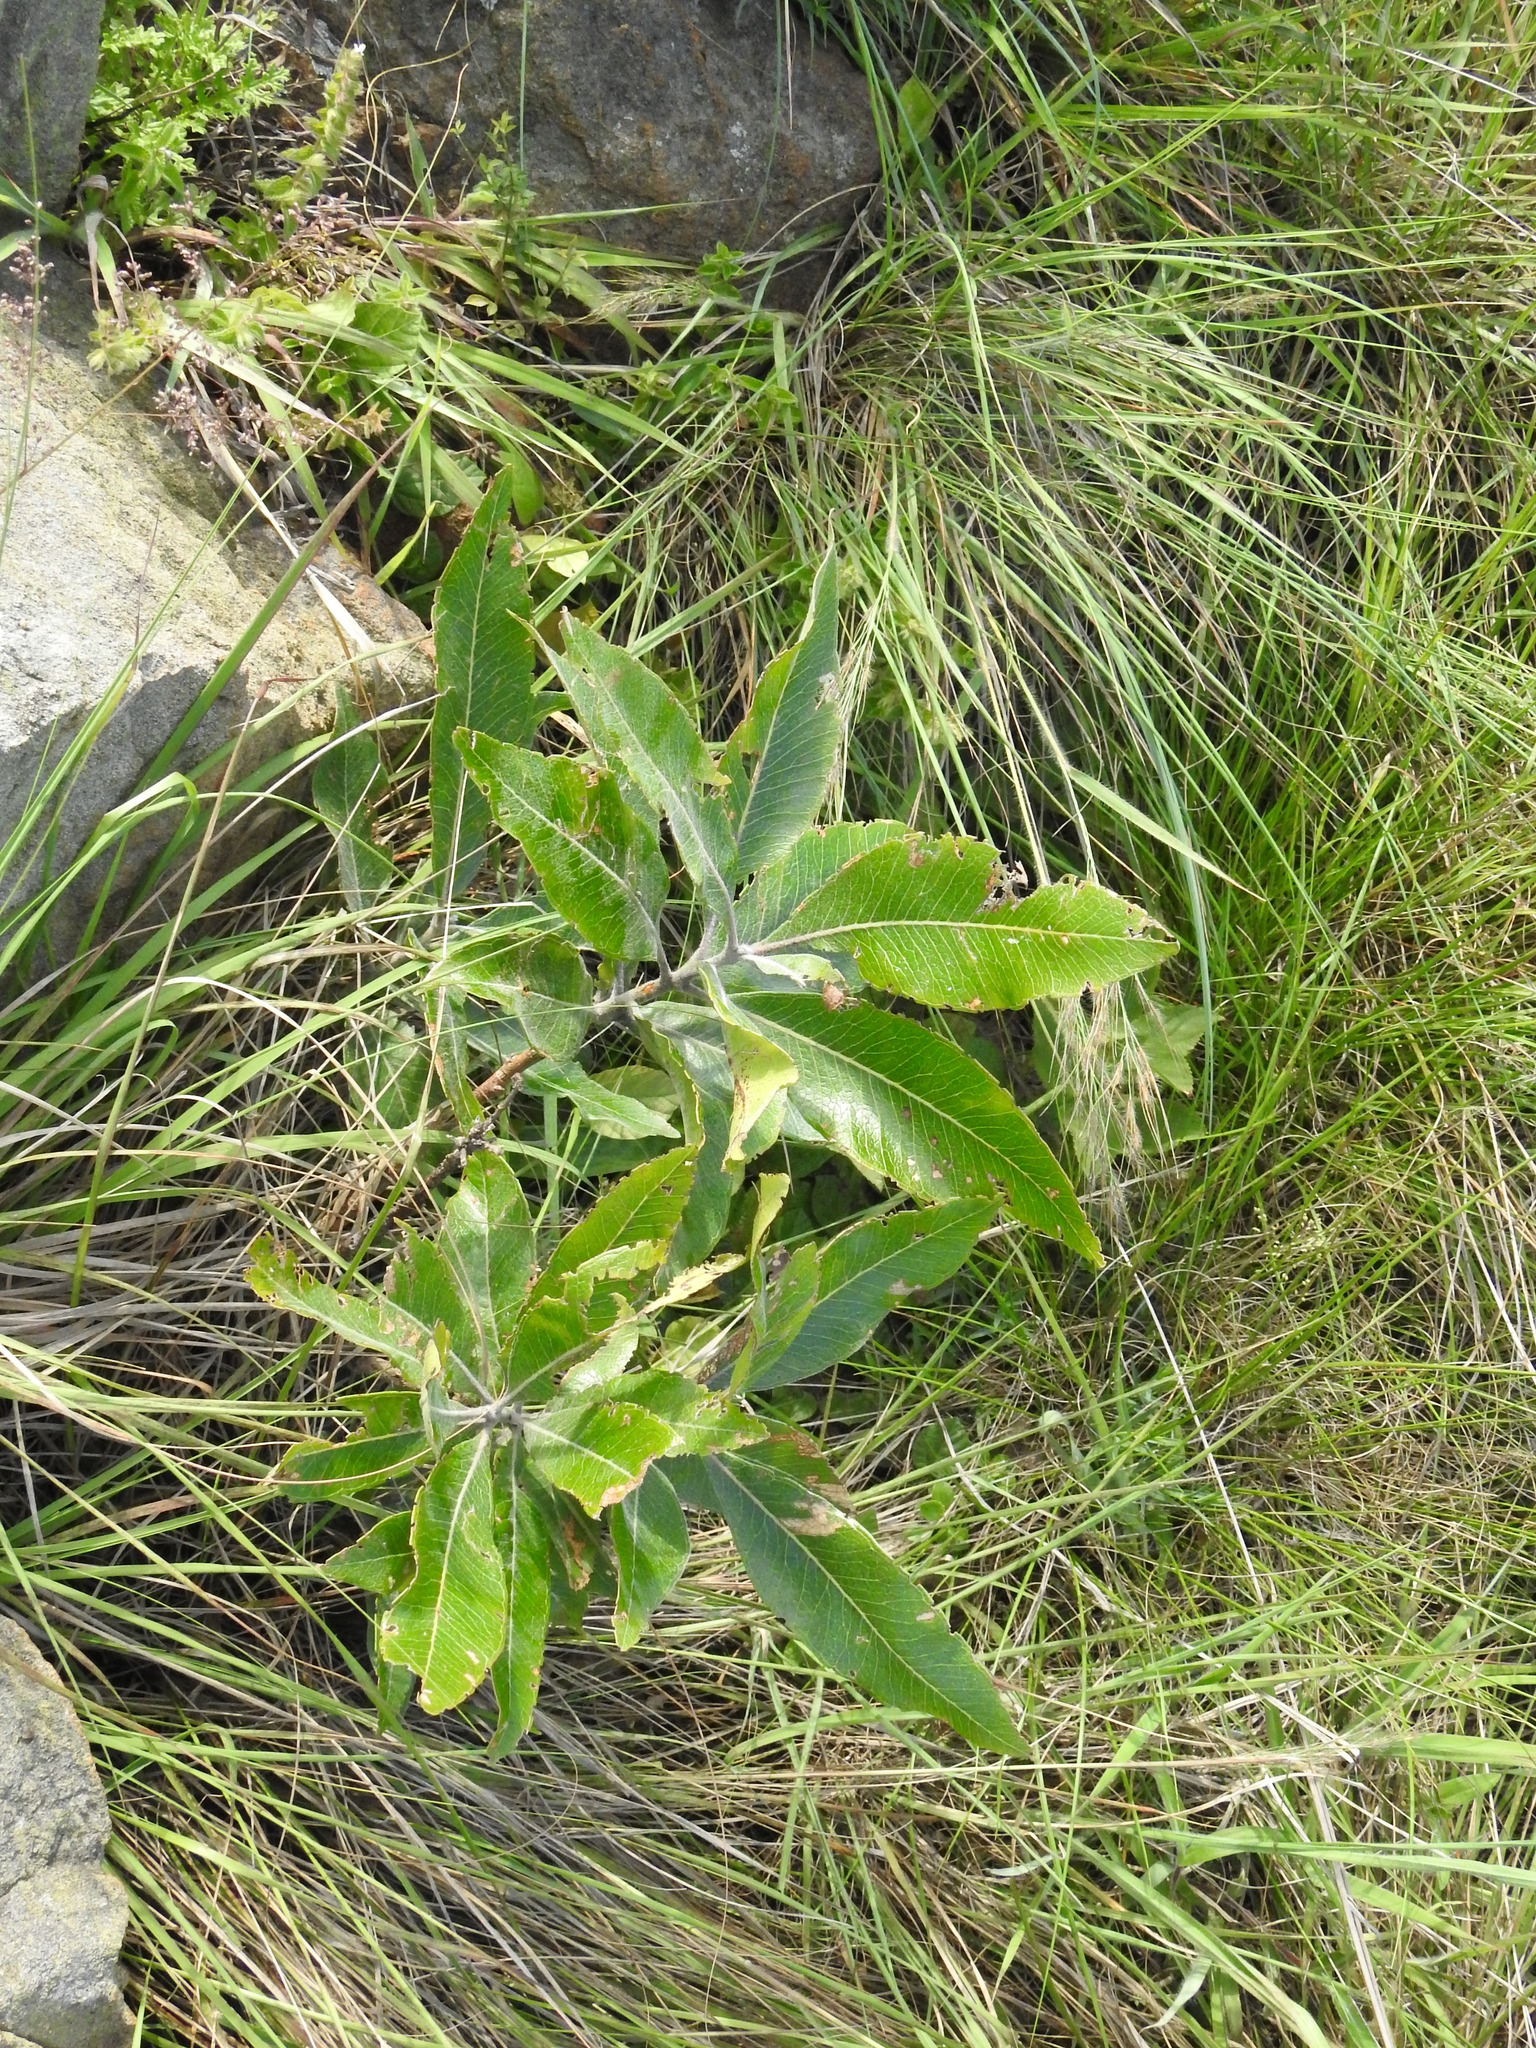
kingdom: Plantae
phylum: Tracheophyta
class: Magnoliopsida
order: Proteales
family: Proteaceae
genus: Faurea
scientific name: Faurea rochetiana
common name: Broad-leaved beech
